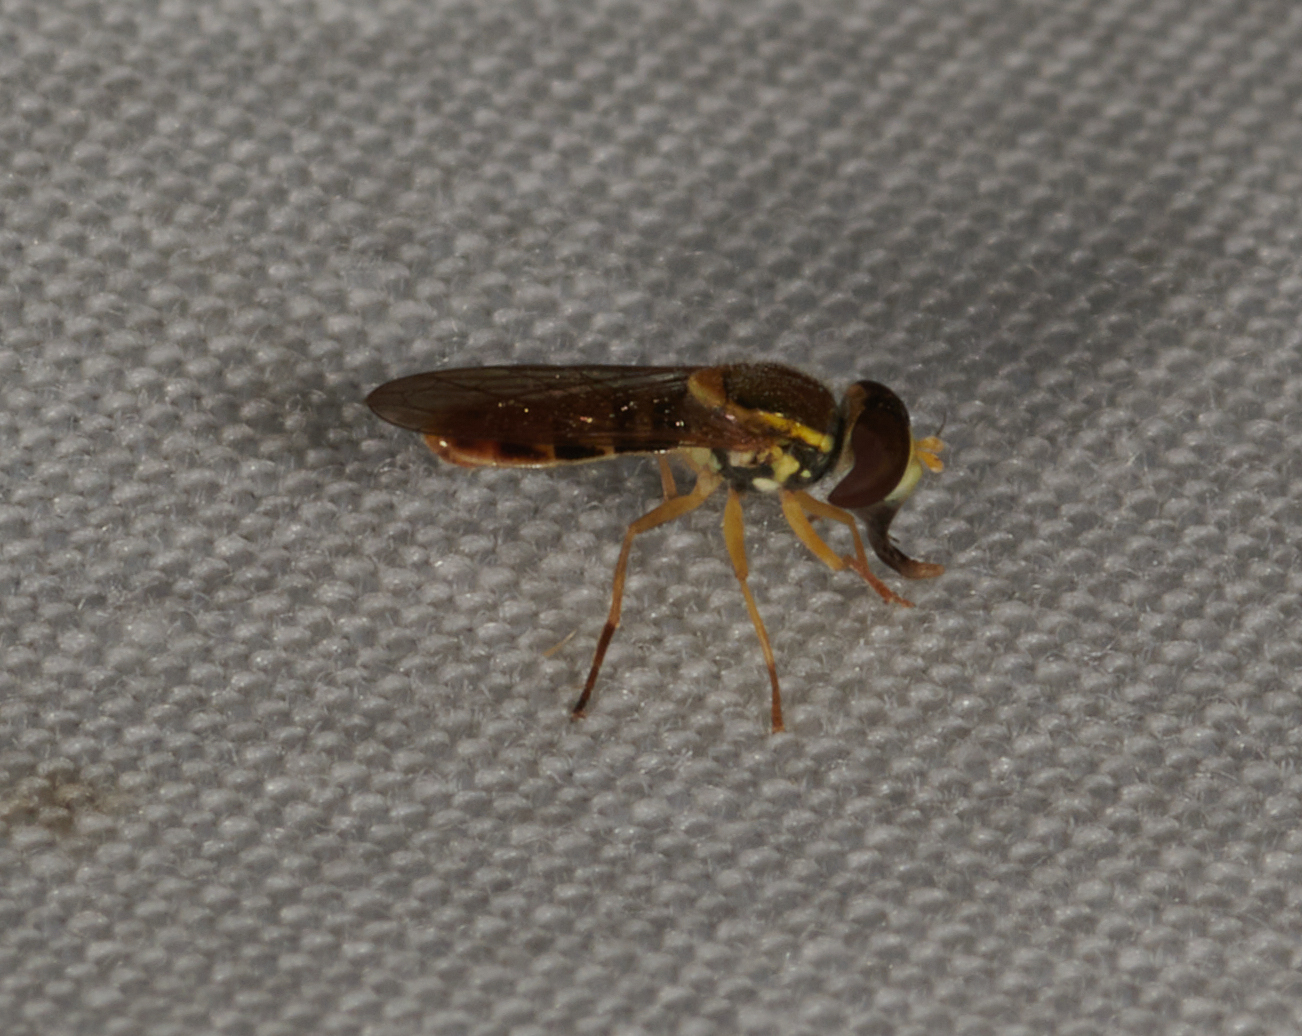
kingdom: Animalia
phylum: Arthropoda
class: Insecta
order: Diptera
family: Syrphidae
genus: Toxomerus
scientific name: Toxomerus marginatus
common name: Syrphid fly
